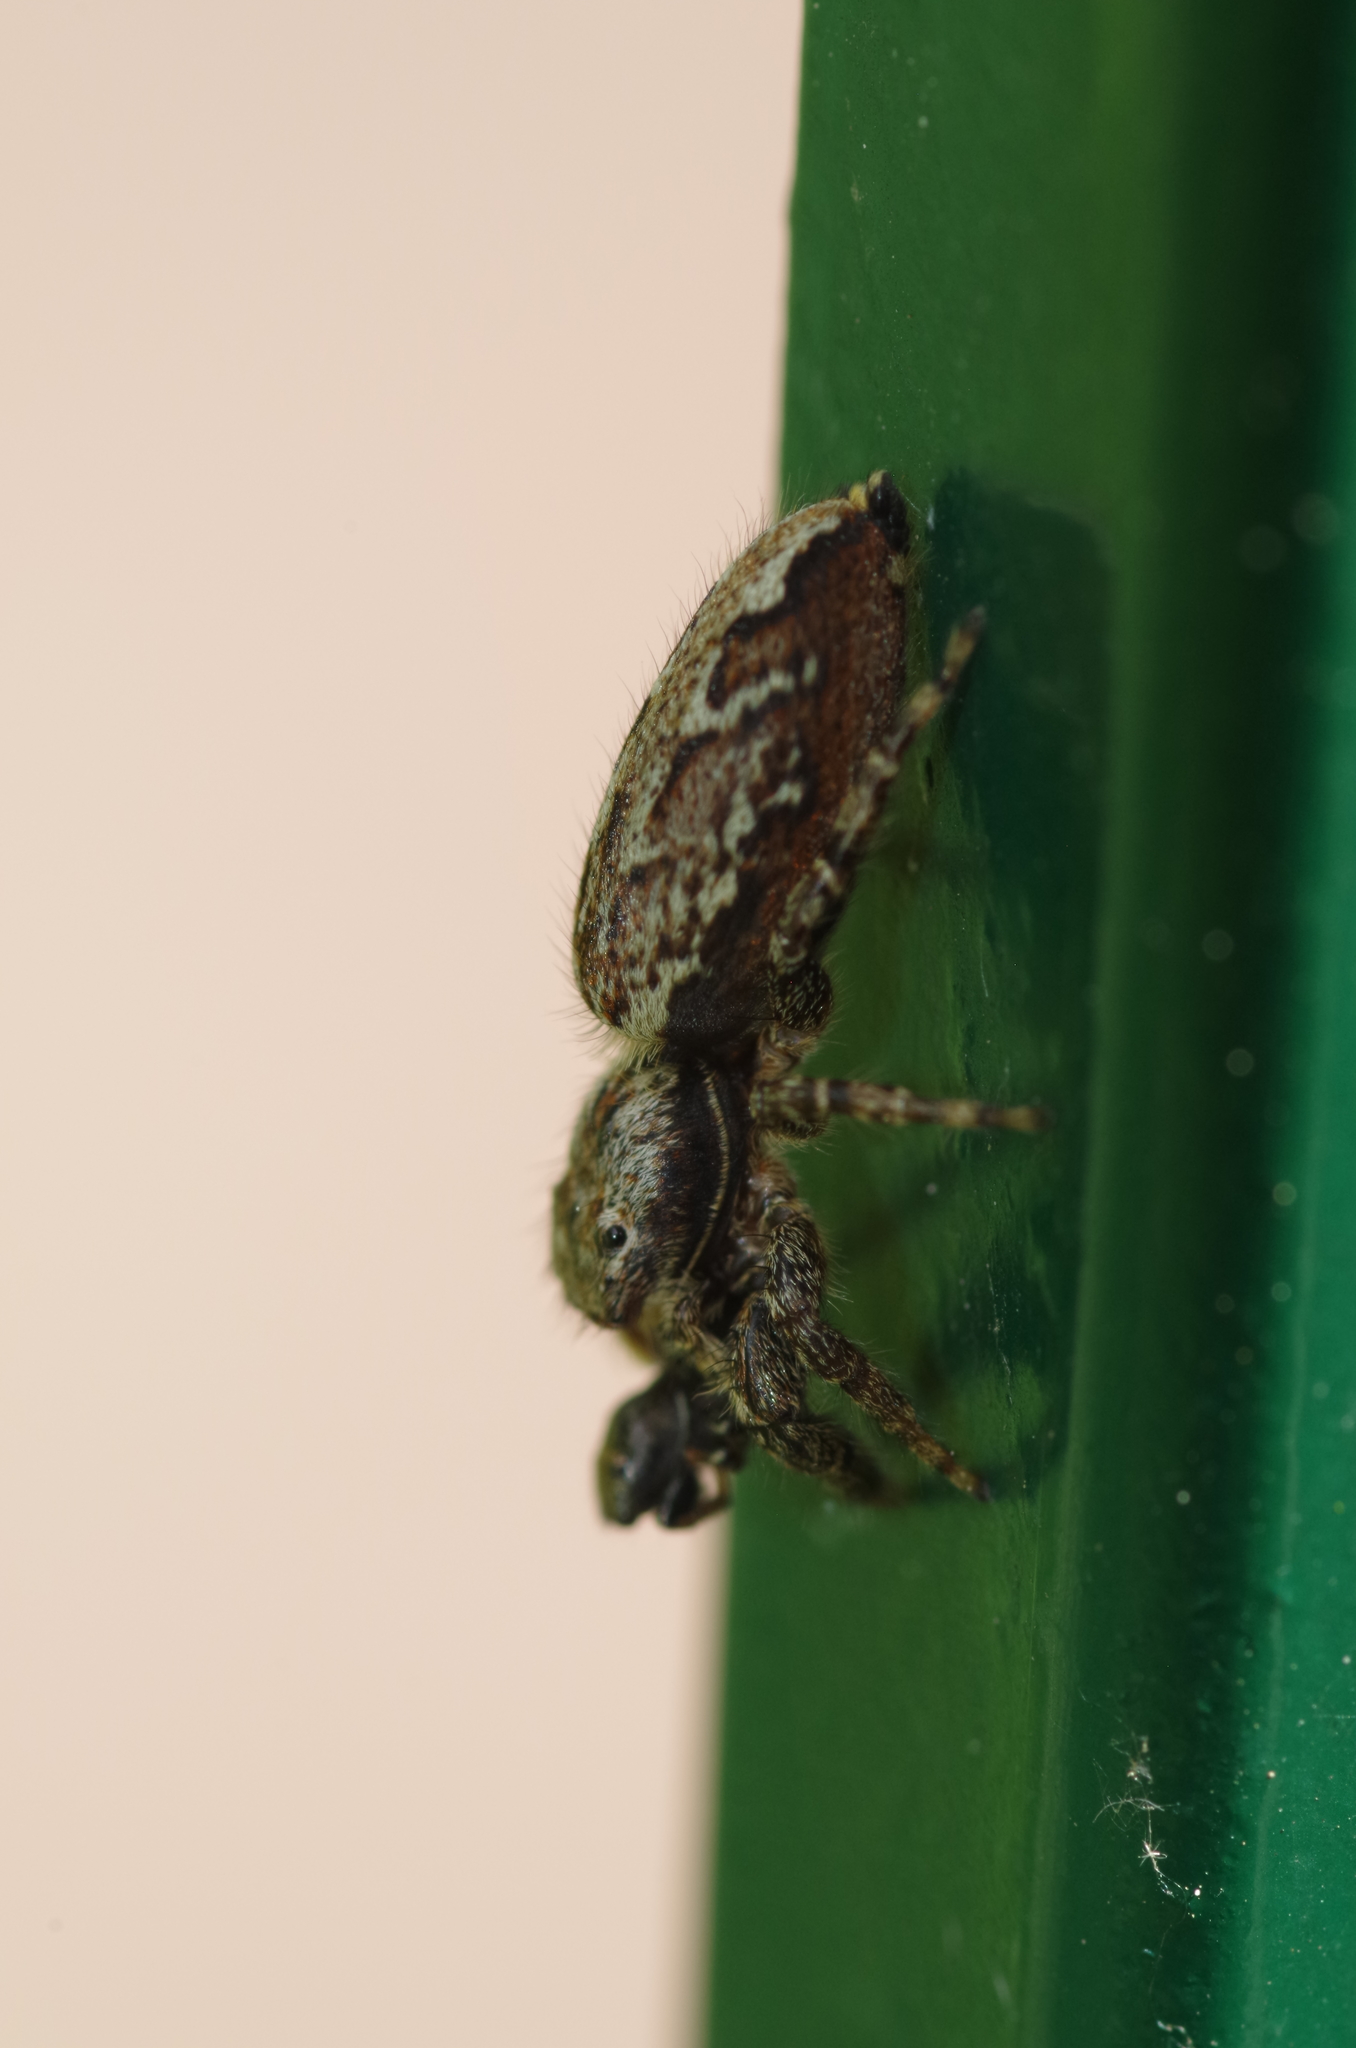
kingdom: Animalia
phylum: Arthropoda
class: Arachnida
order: Araneae
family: Salticidae
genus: Marpissa
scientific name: Marpissa muscosa
